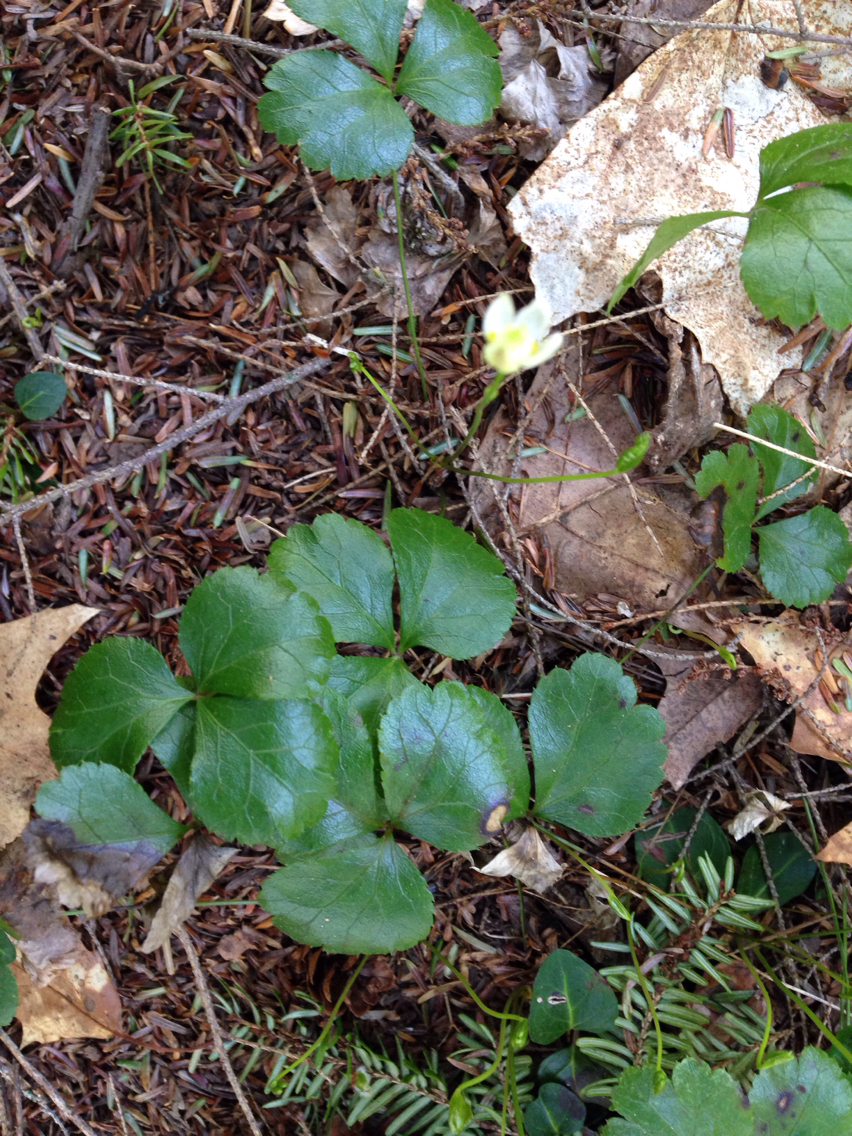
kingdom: Plantae
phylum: Tracheophyta
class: Magnoliopsida
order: Ranunculales
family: Ranunculaceae
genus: Coptis
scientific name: Coptis trifolia
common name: Canker-root
